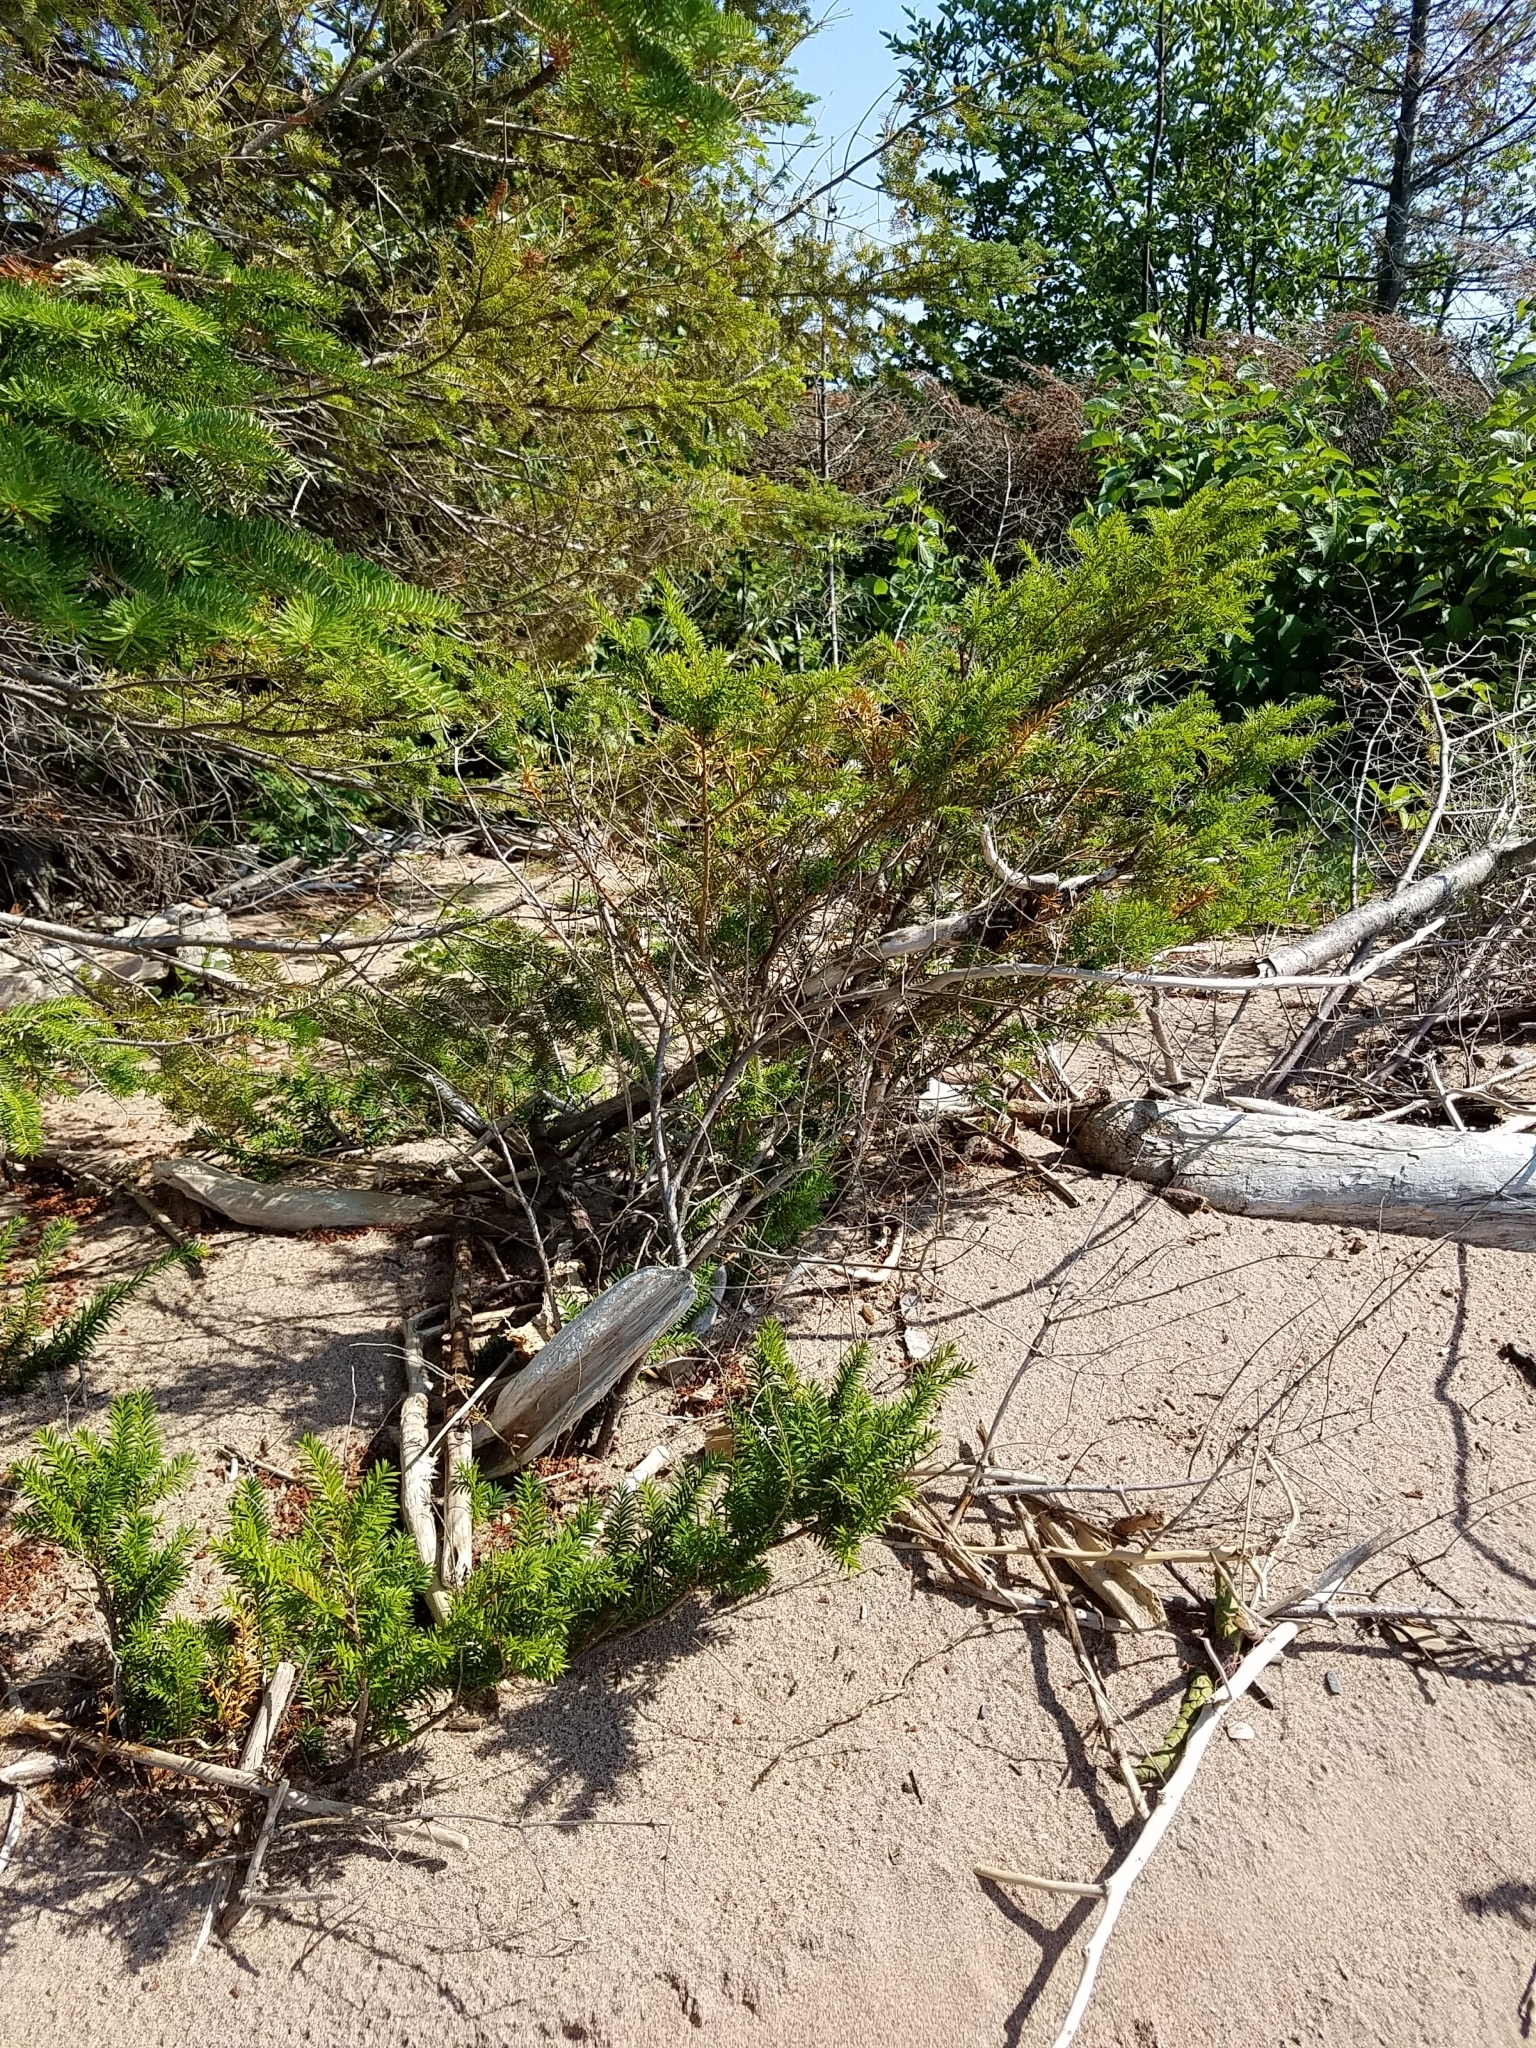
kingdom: Plantae
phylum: Tracheophyta
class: Pinopsida
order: Pinales
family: Taxaceae
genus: Taxus
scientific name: Taxus canadensis
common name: American yew
